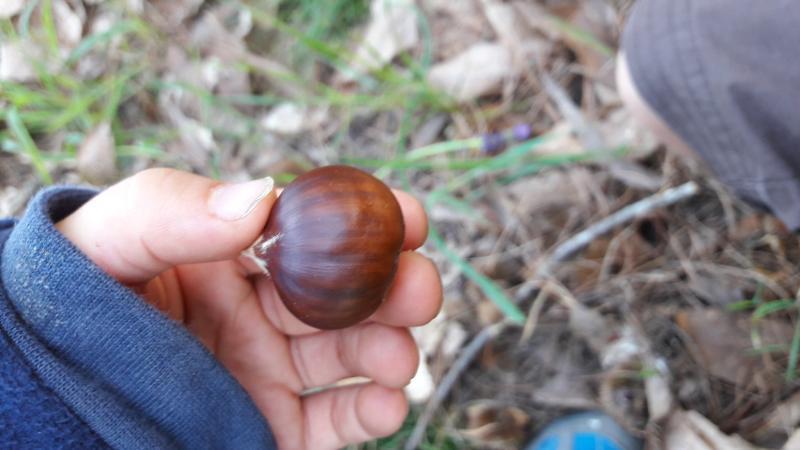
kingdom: Plantae
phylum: Tracheophyta
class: Magnoliopsida
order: Fagales
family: Fagaceae
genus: Castanea
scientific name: Castanea sativa
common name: Sweet chestnut
